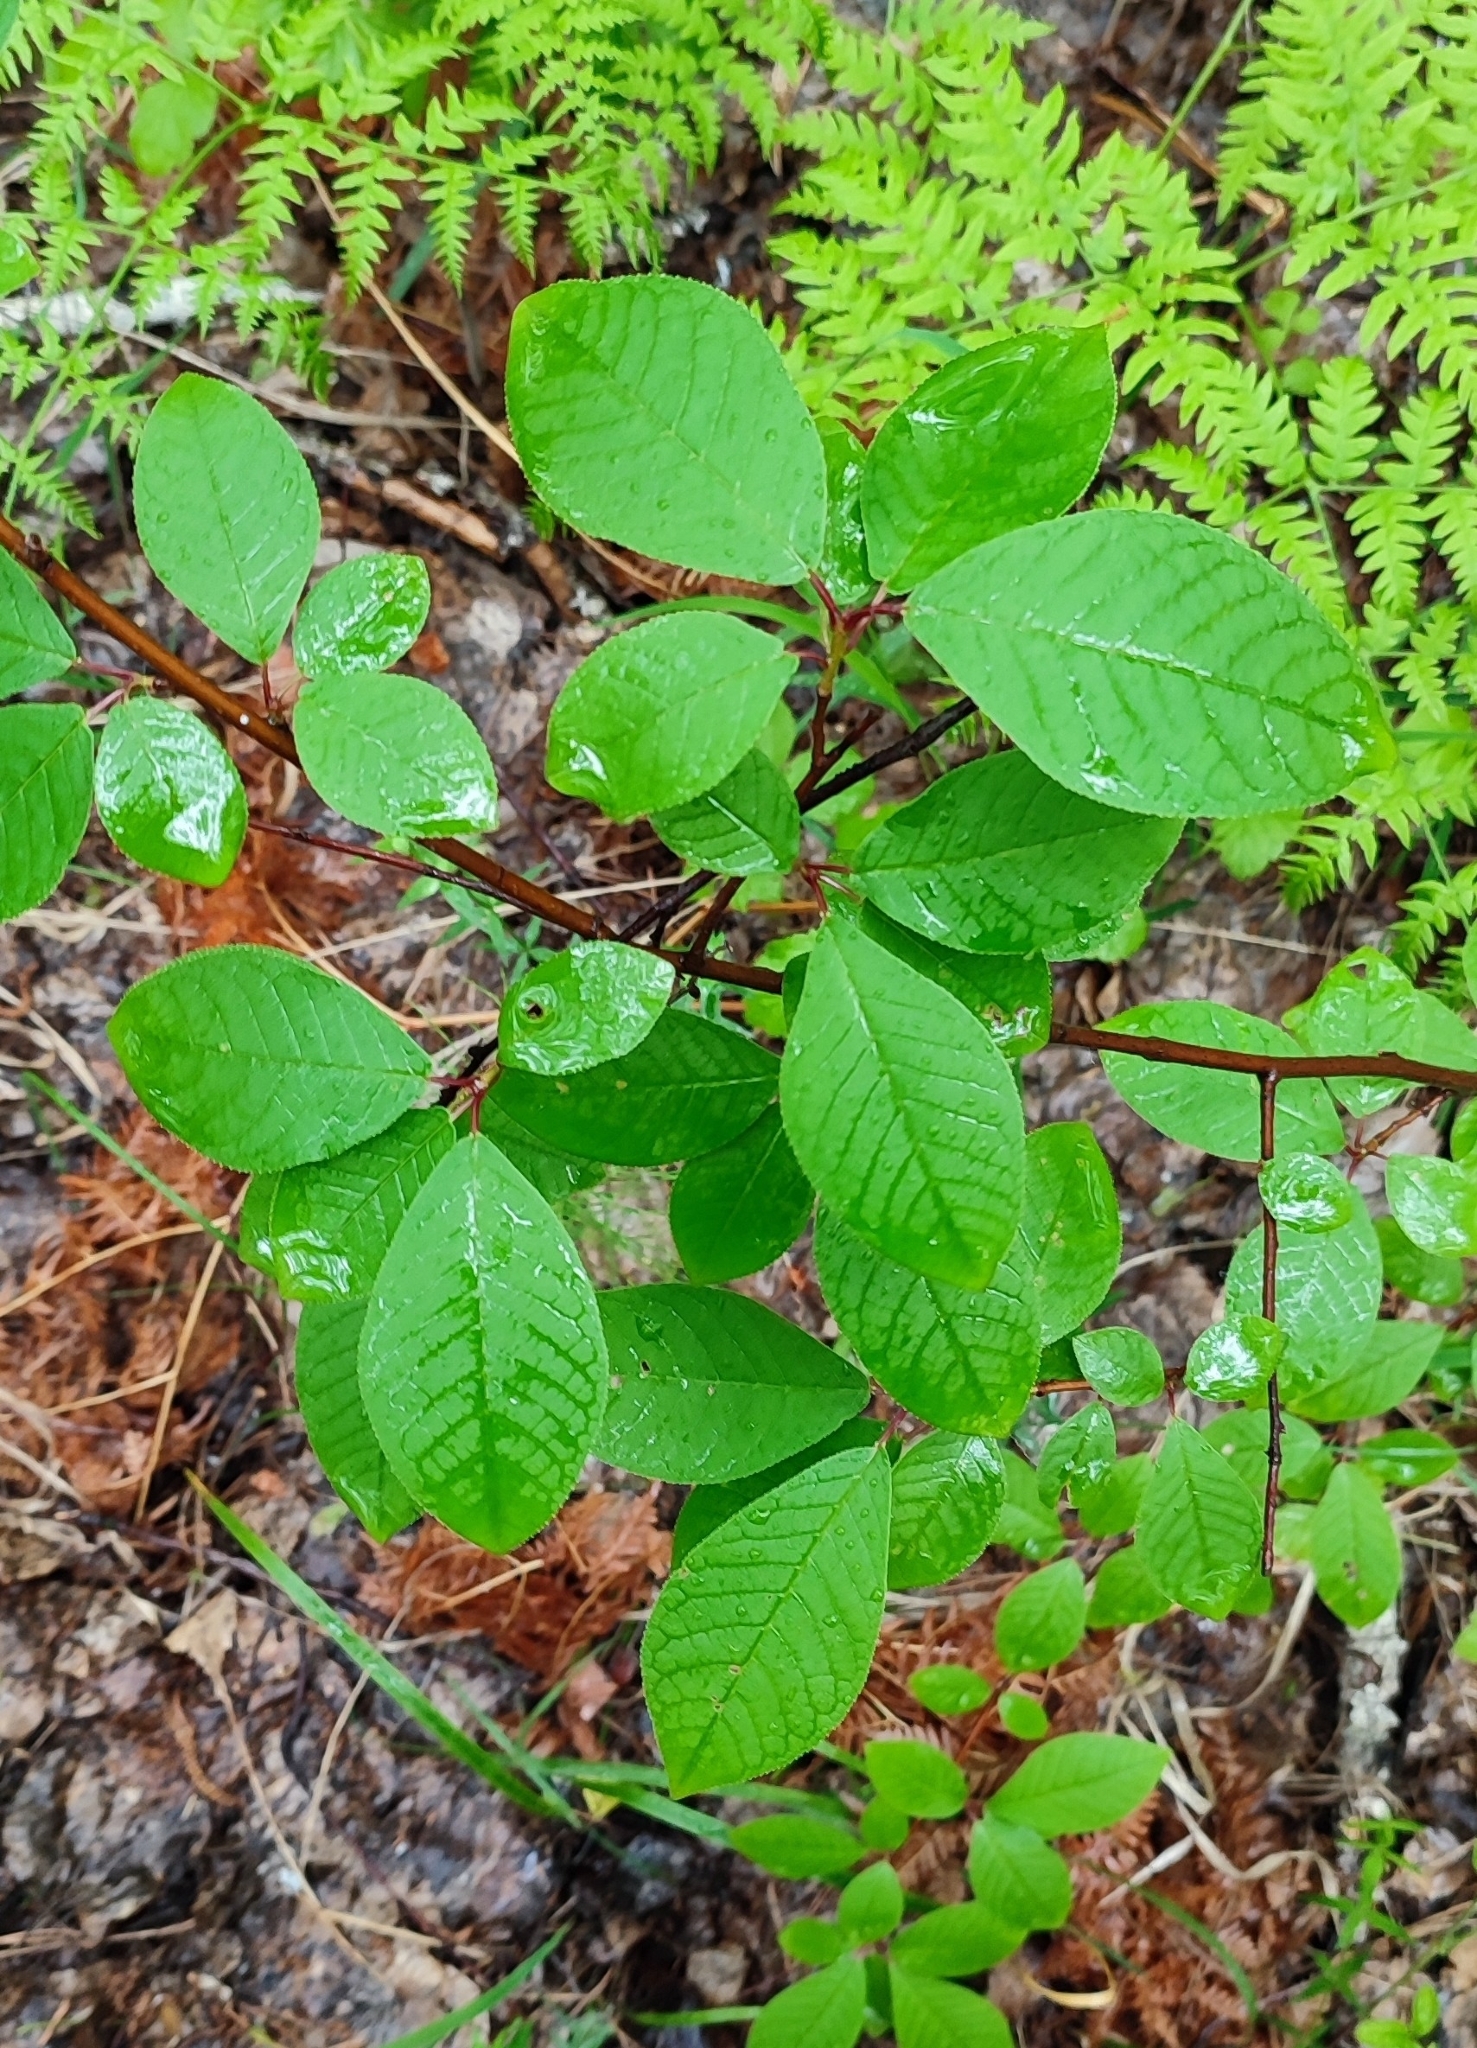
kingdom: Plantae
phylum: Tracheophyta
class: Magnoliopsida
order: Rosales
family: Rosaceae
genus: Prunus
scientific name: Prunus padus
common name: Bird cherry
